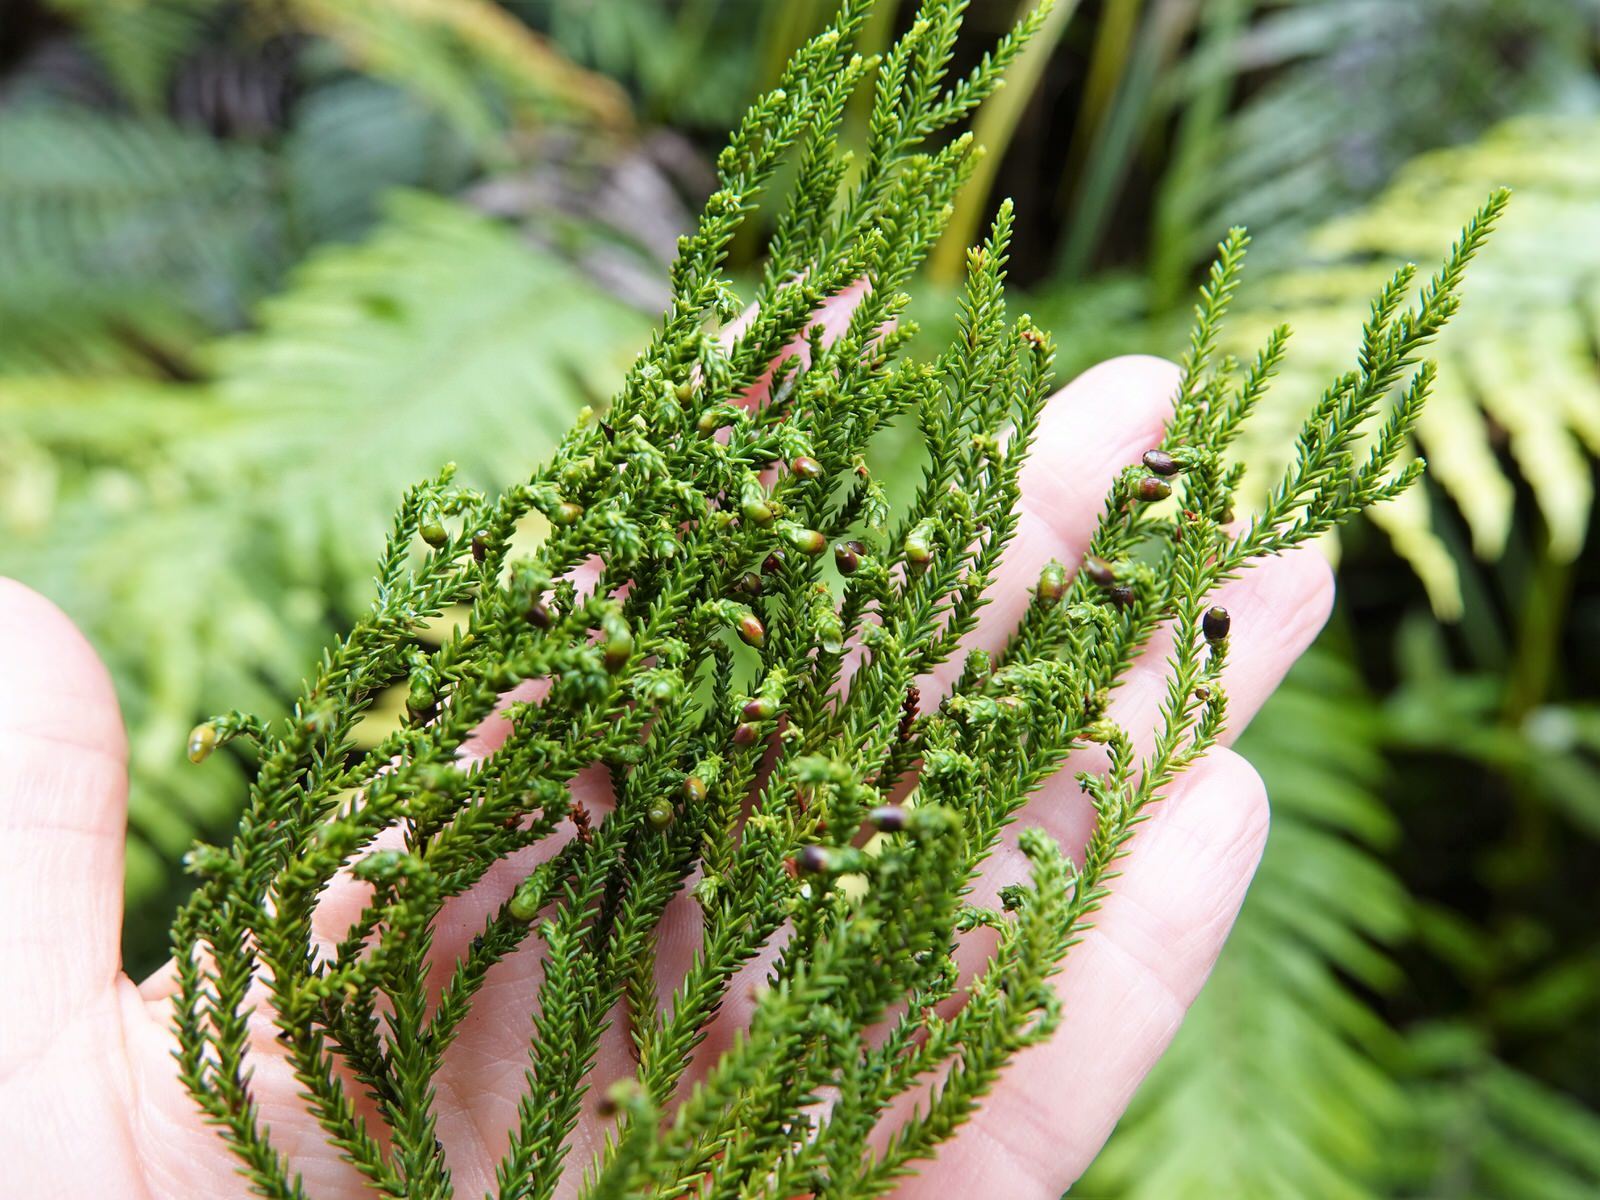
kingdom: Plantae
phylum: Tracheophyta
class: Pinopsida
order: Pinales
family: Podocarpaceae
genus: Dacrydium
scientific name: Dacrydium cupressinum
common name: Red pine
